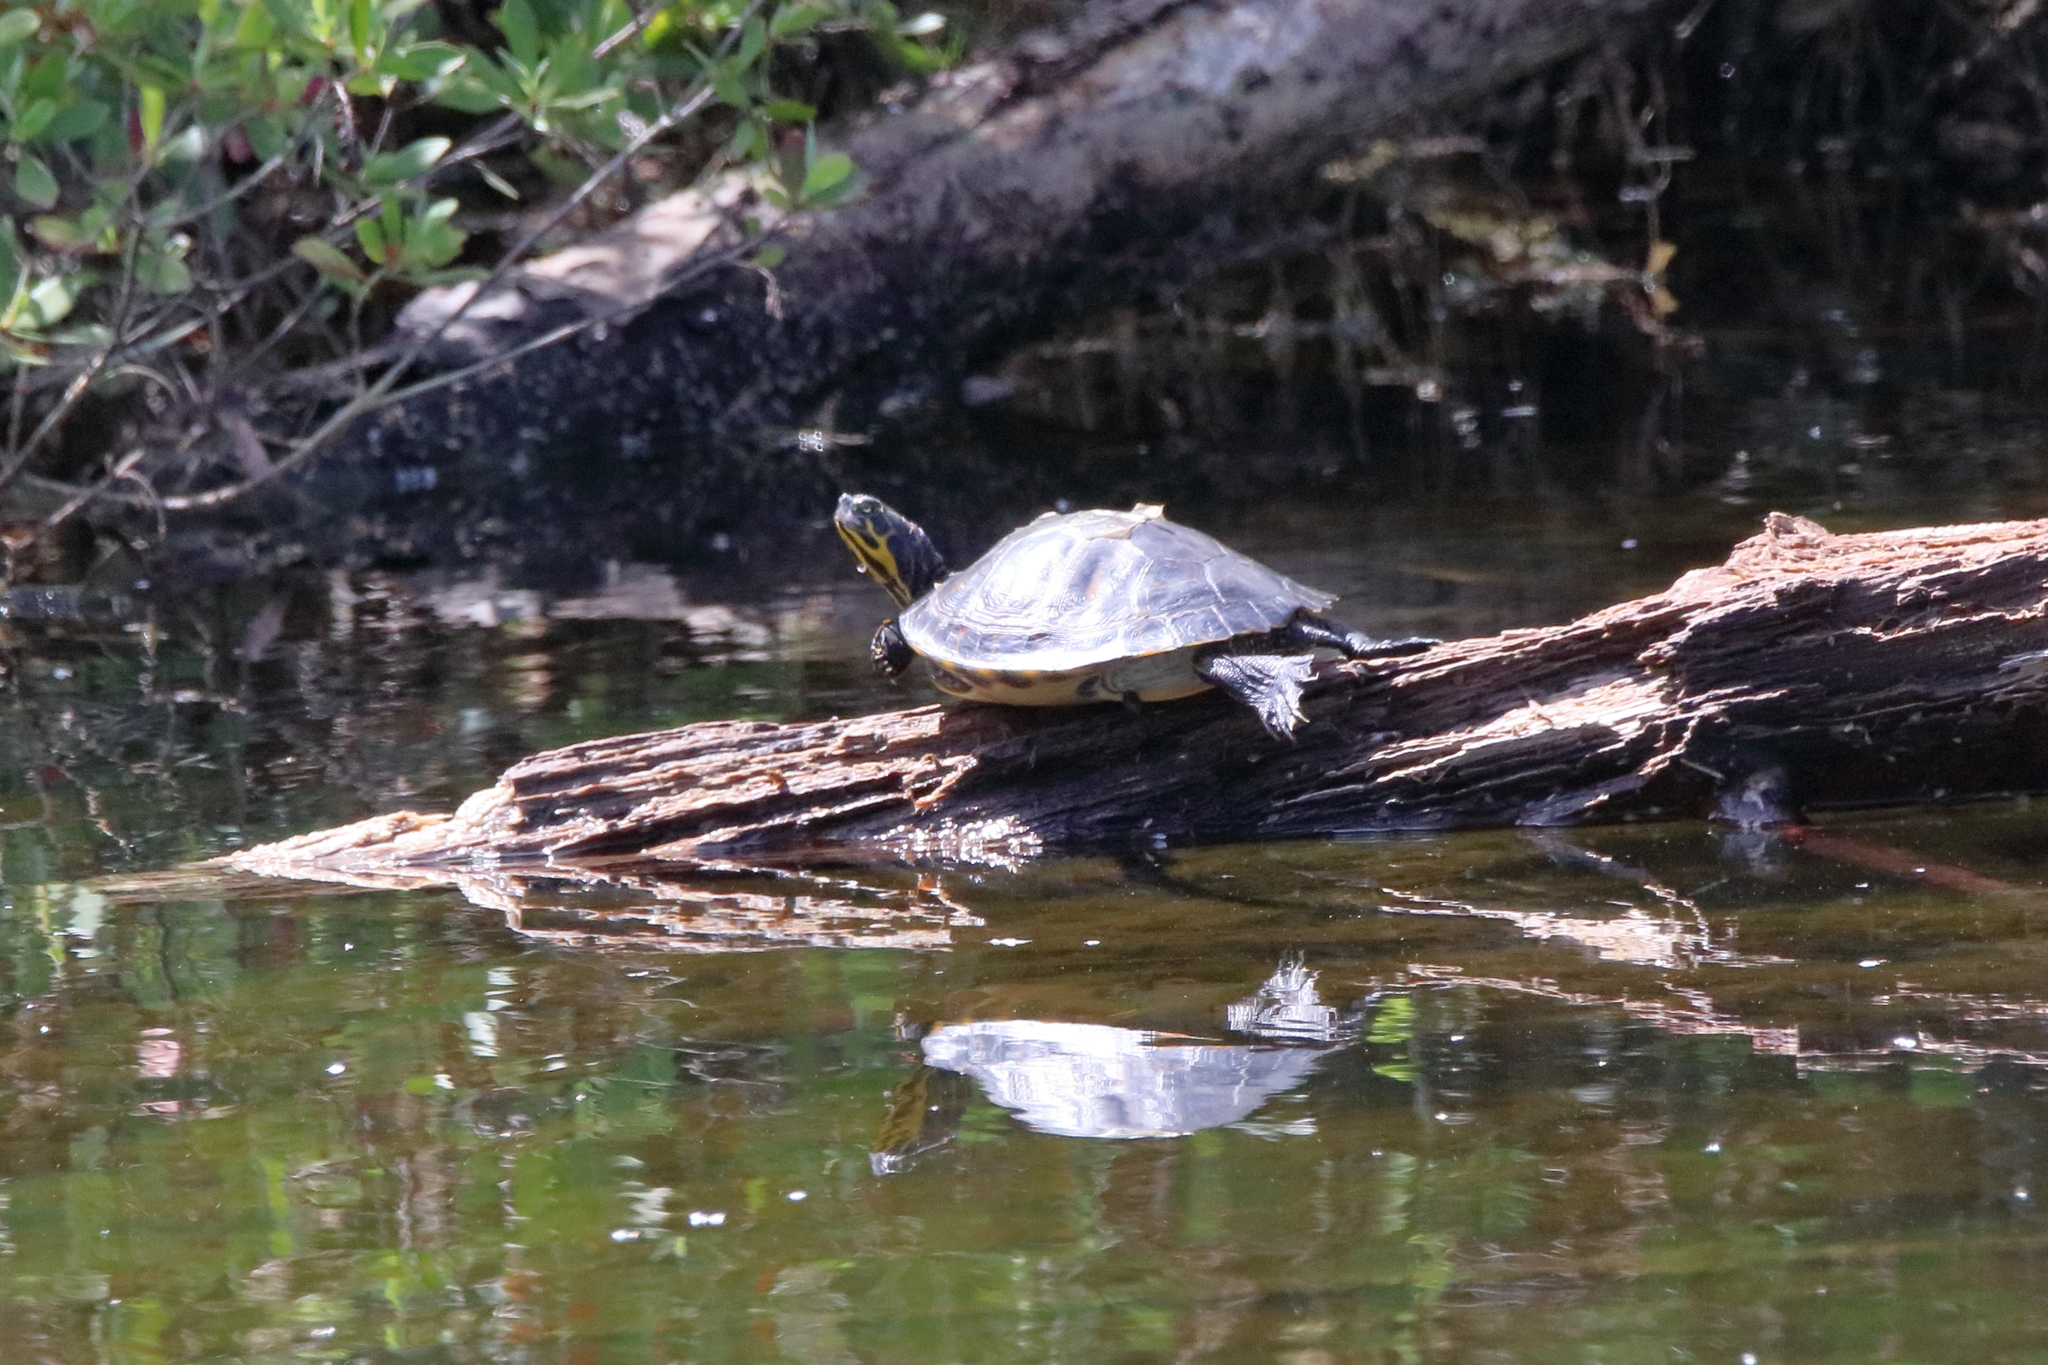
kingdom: Animalia
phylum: Chordata
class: Testudines
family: Emydidae
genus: Pseudemys
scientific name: Pseudemys concinna
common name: Eastern river cooter
